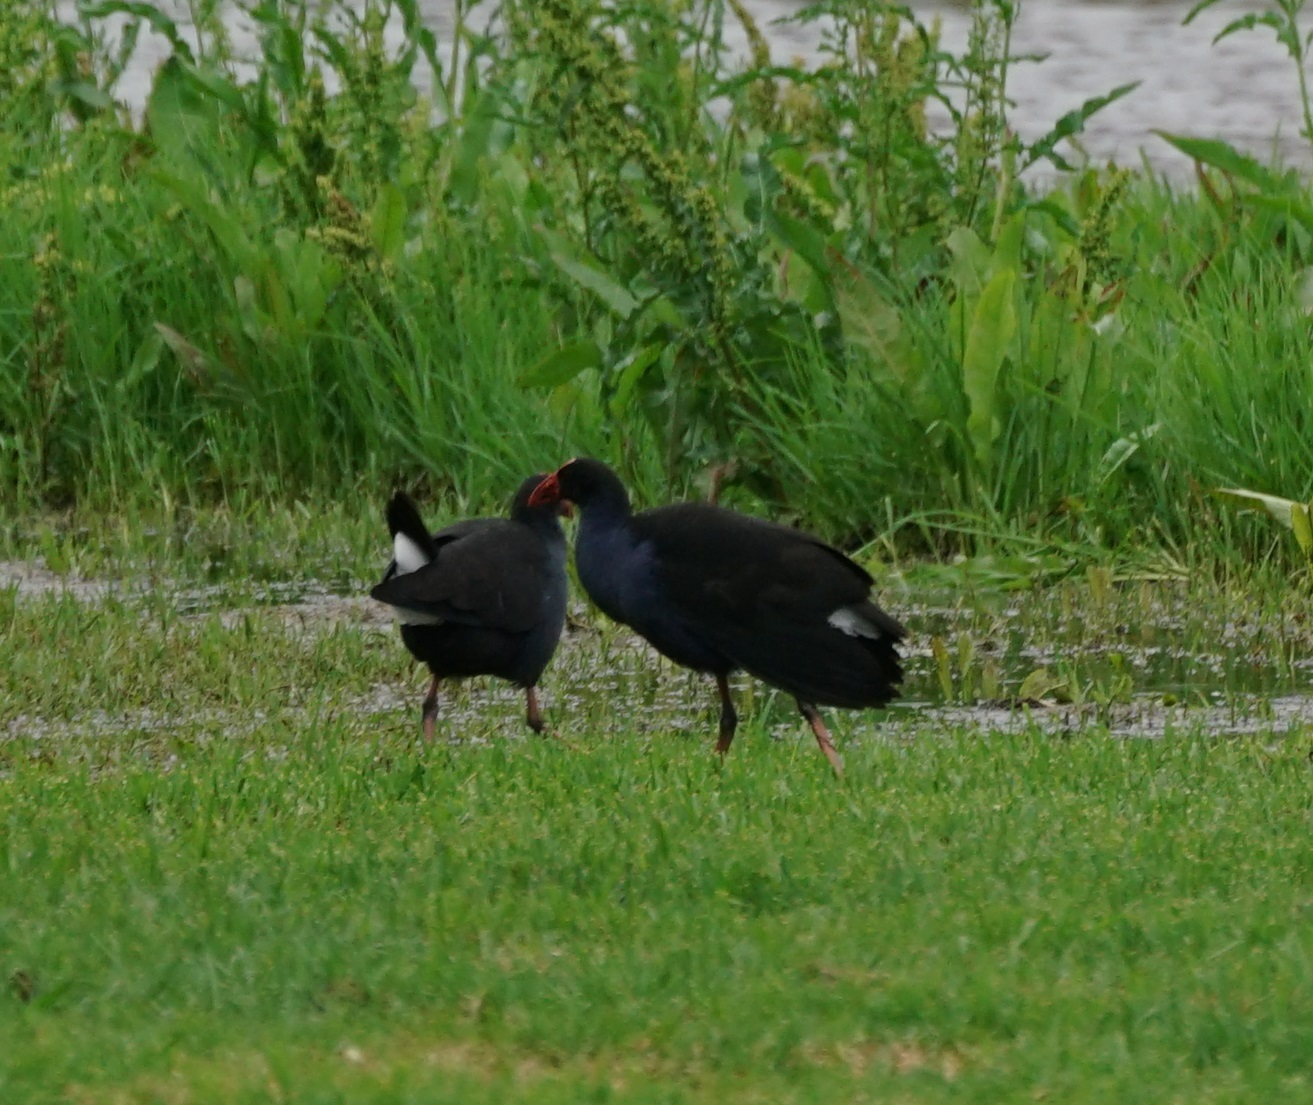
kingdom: Animalia
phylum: Chordata
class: Aves
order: Gruiformes
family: Rallidae
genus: Porphyrio
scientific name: Porphyrio melanotus
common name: Australasian swamphen
